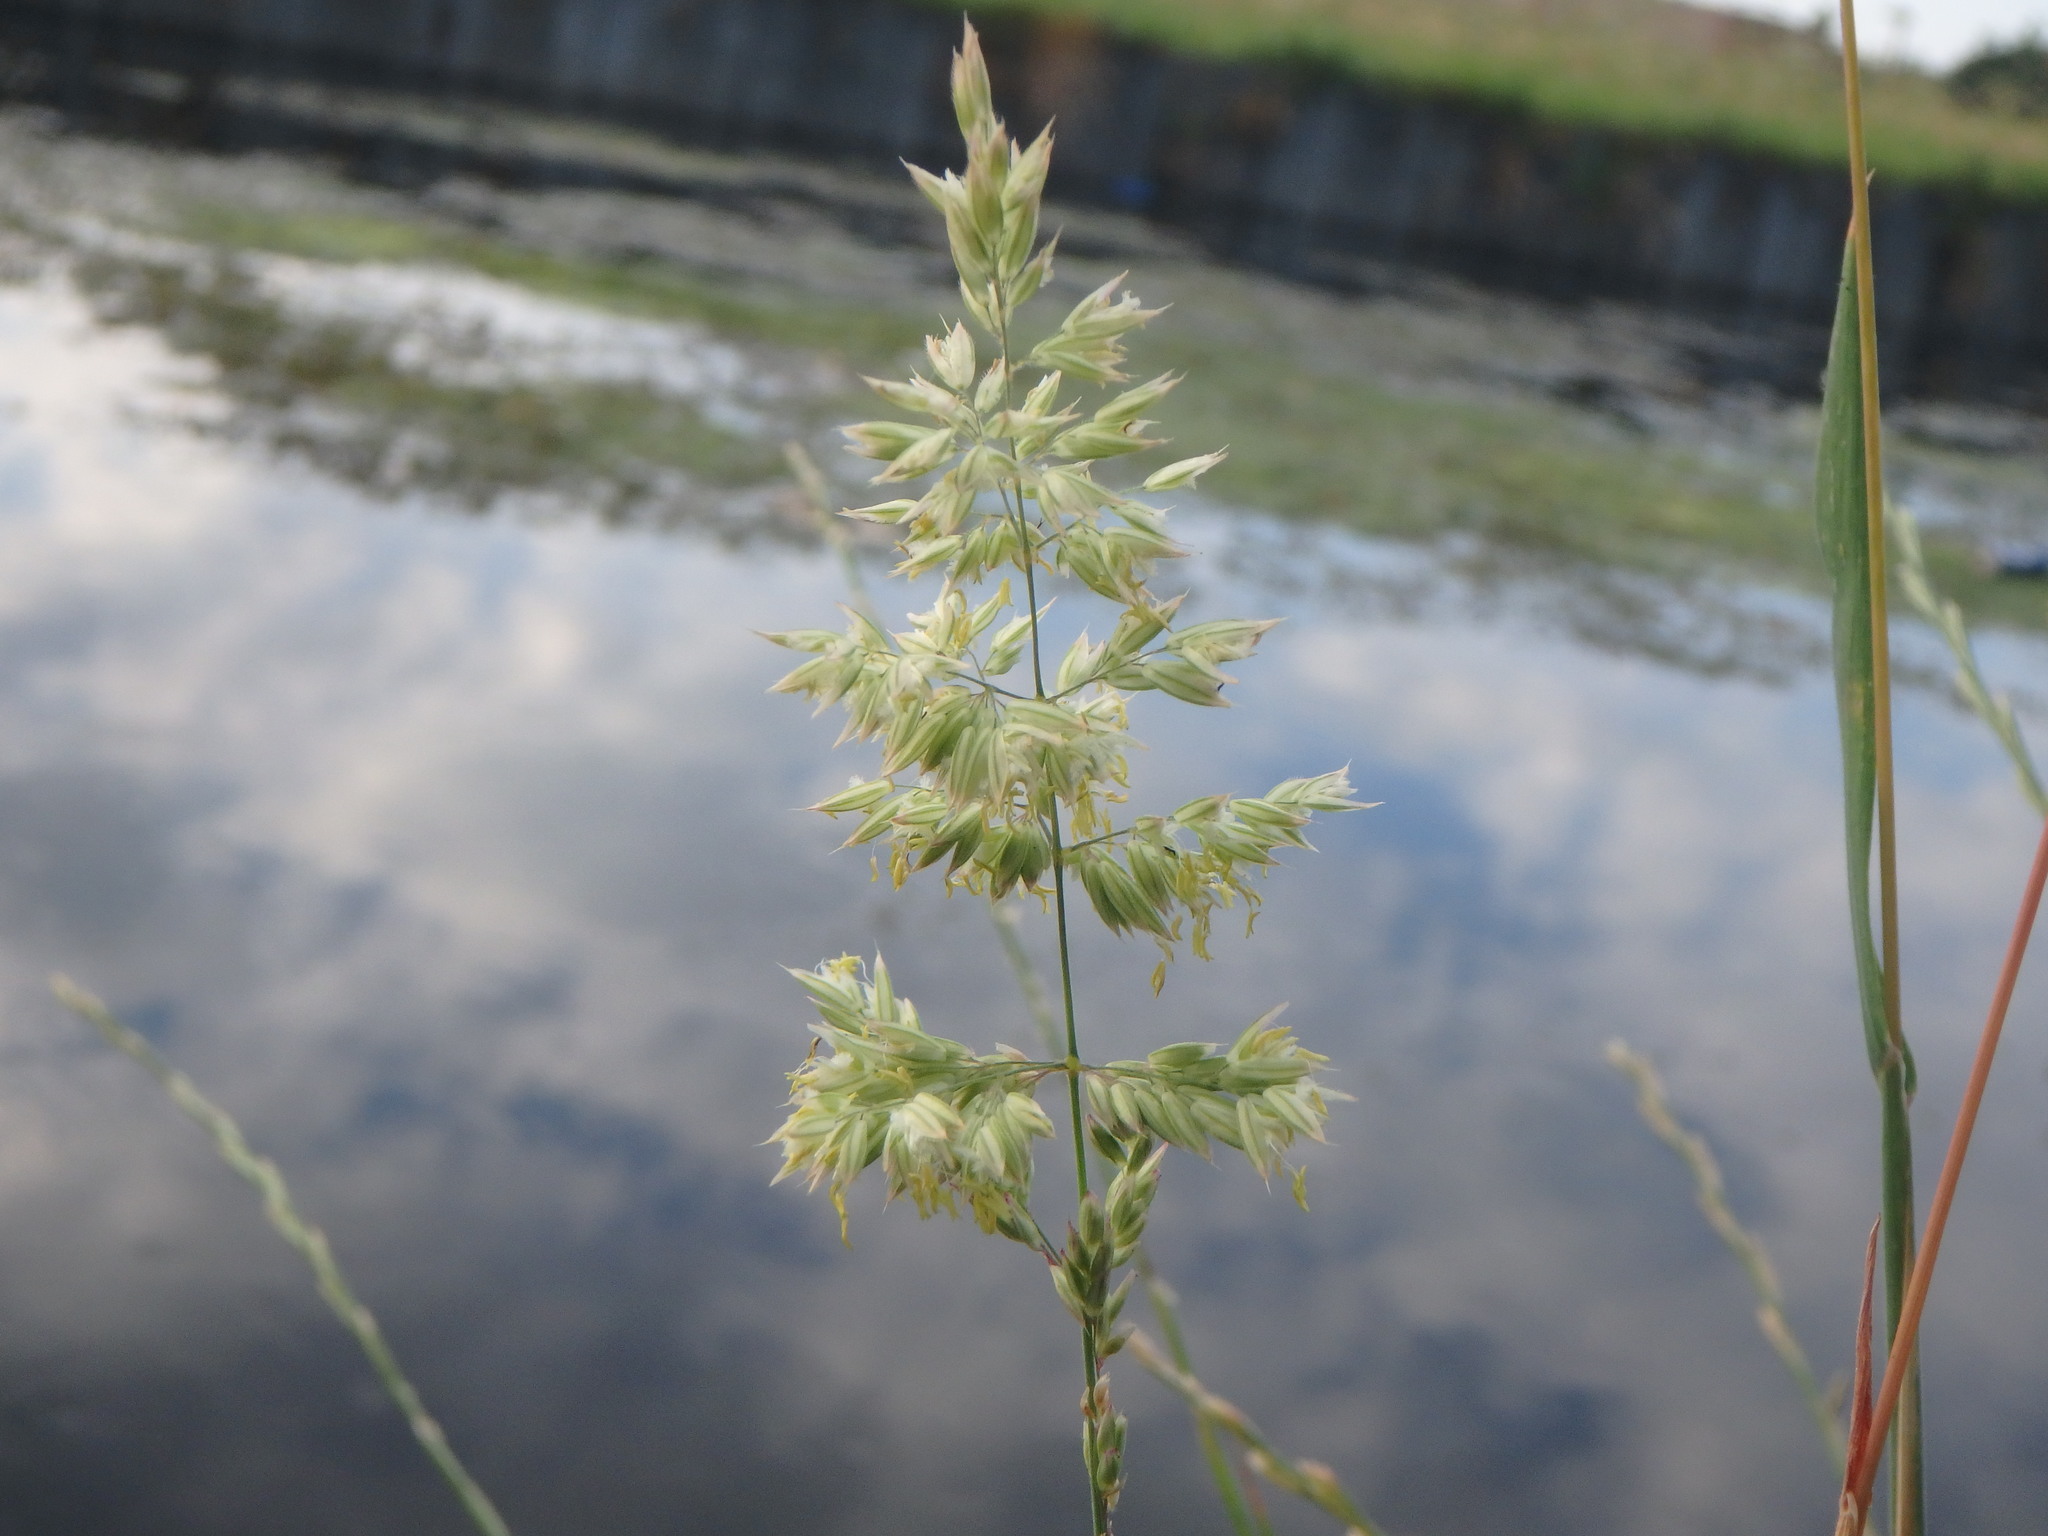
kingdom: Plantae
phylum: Tracheophyta
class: Liliopsida
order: Poales
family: Poaceae
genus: Holcus
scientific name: Holcus lanatus
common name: Yorkshire-fog
